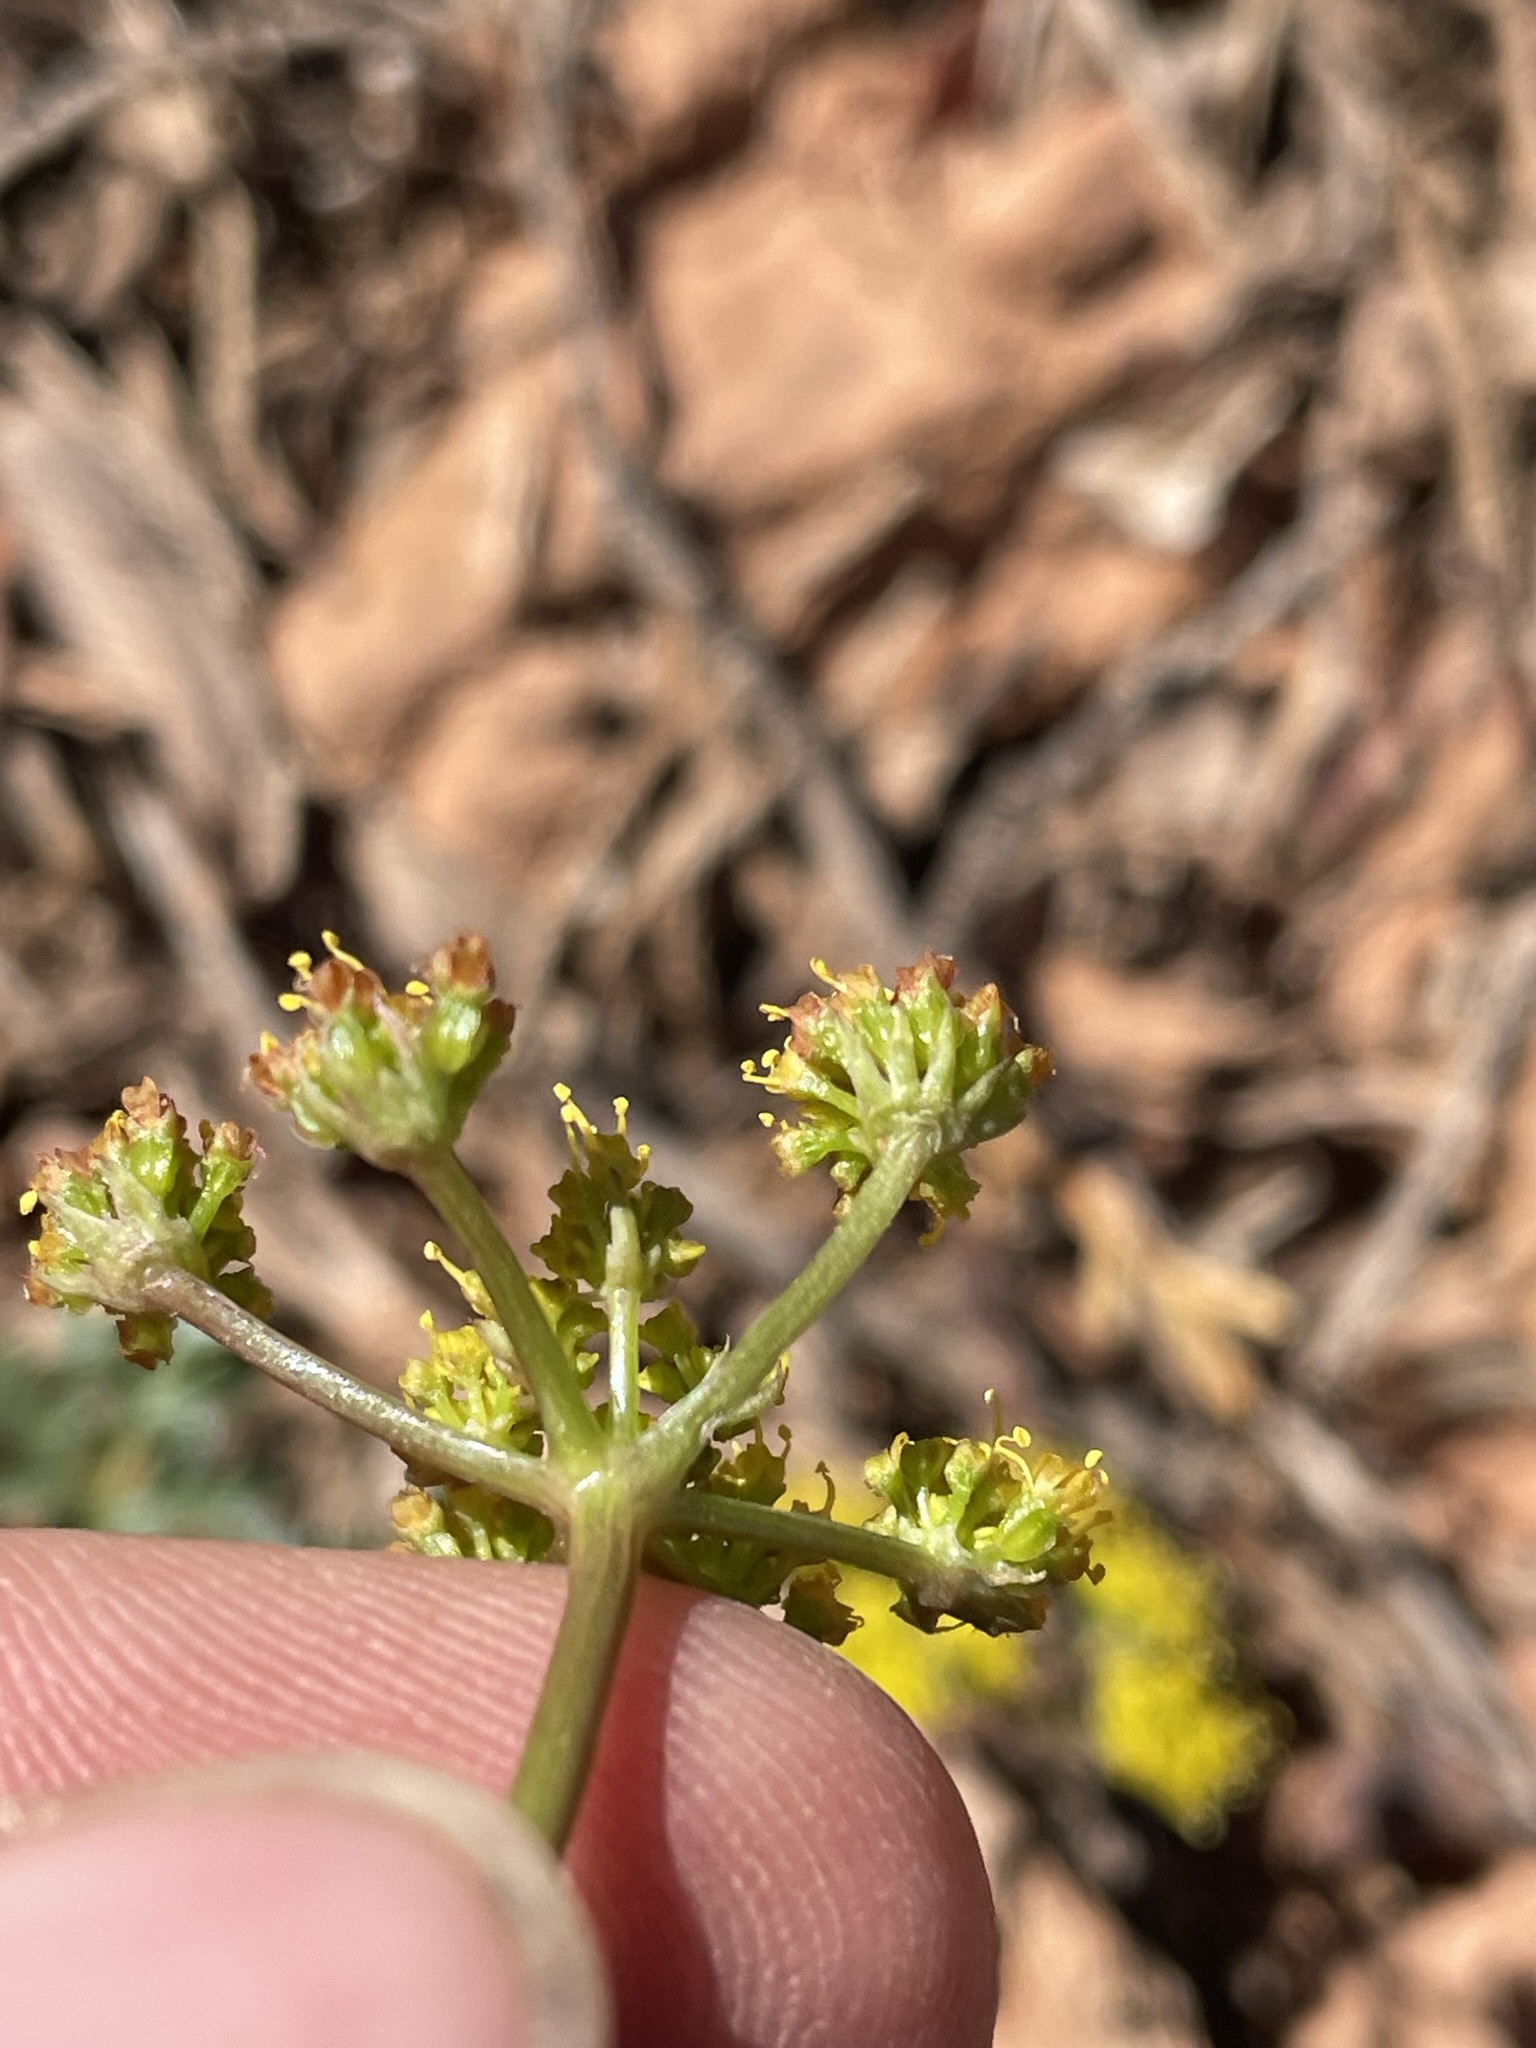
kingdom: Plantae
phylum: Tracheophyta
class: Magnoliopsida
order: Apiales
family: Apiaceae
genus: Aulospermum
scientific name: Aulospermum purpureum
